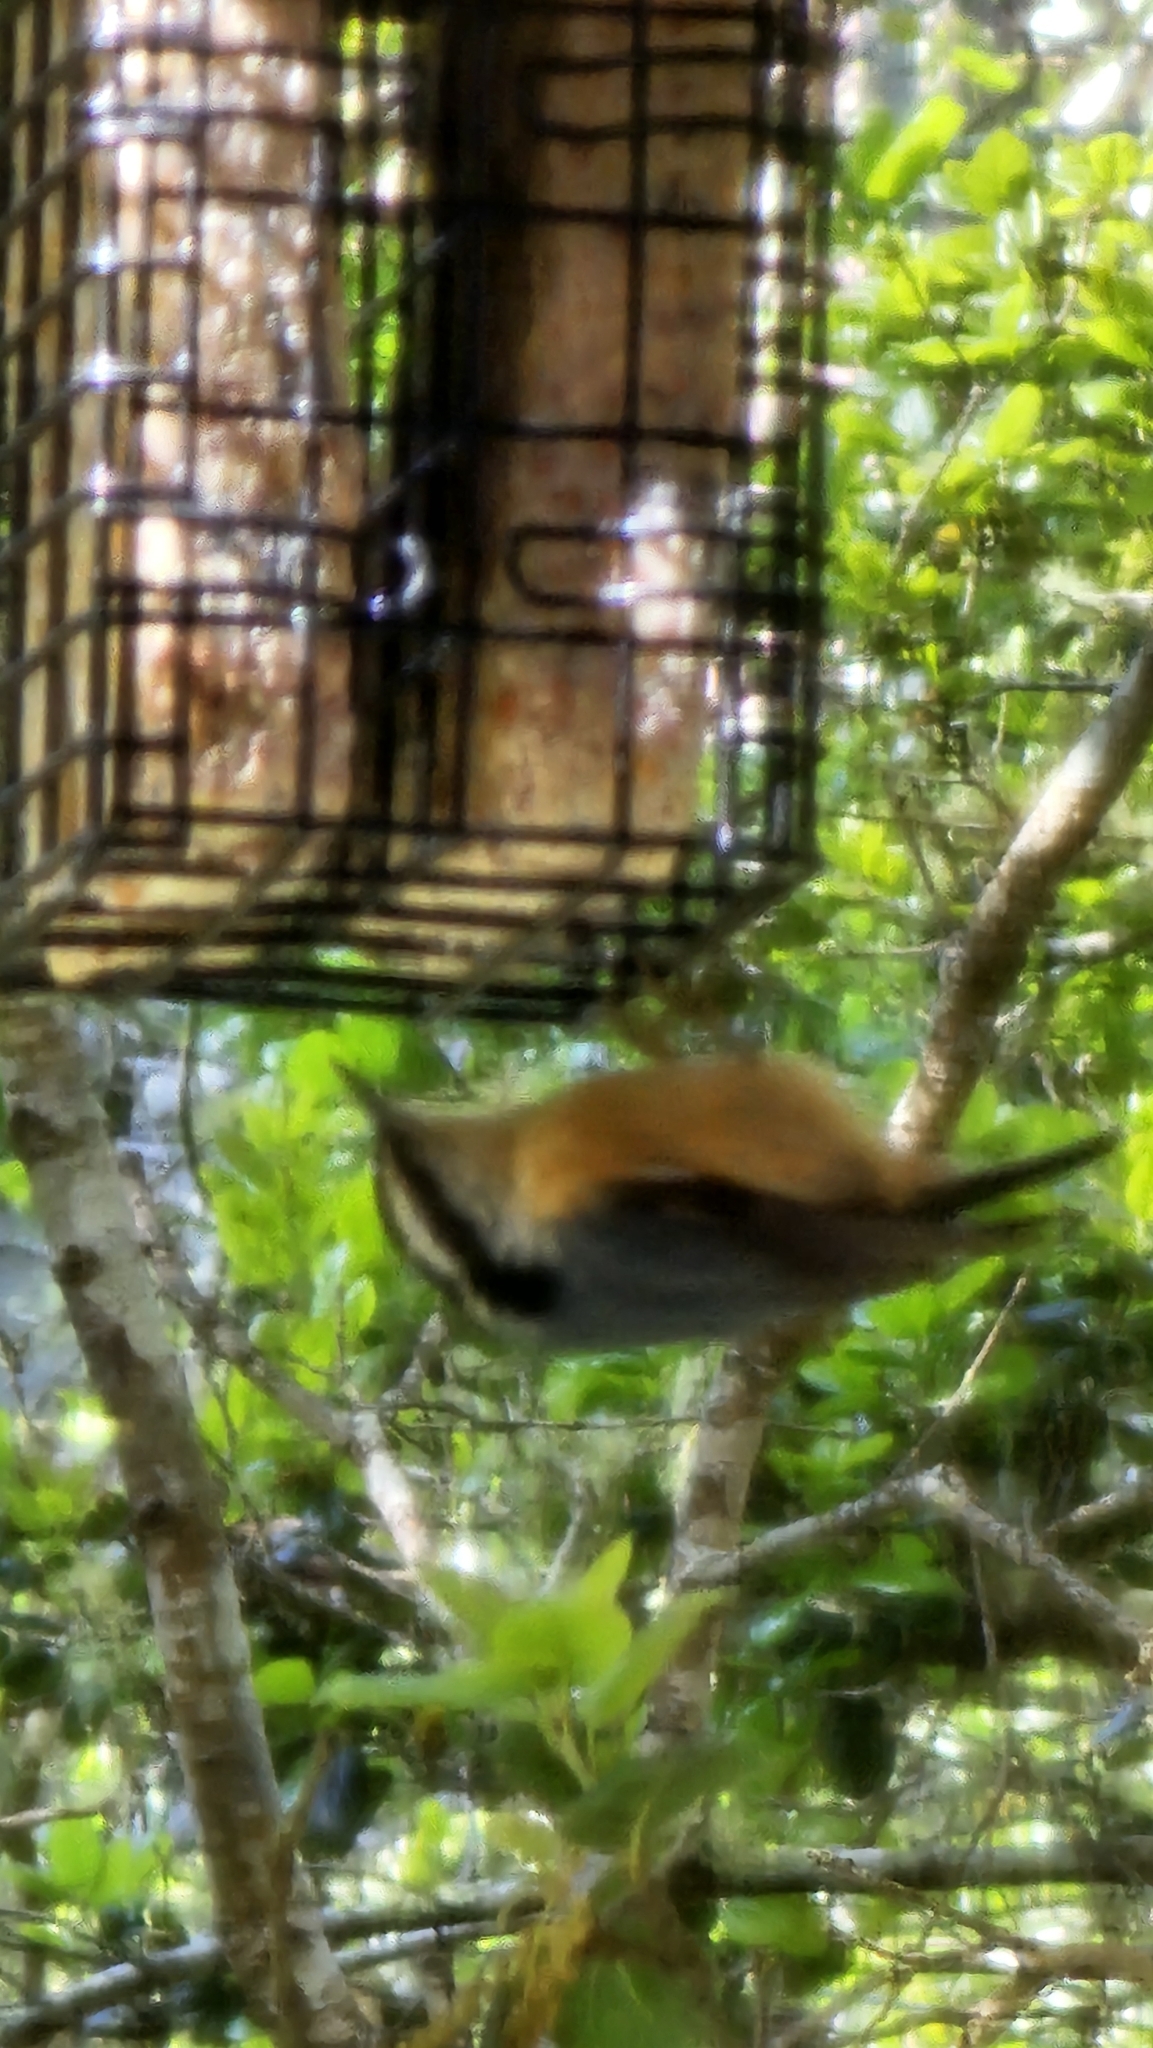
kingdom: Animalia
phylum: Chordata
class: Aves
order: Passeriformes
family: Sittidae
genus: Sitta
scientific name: Sitta canadensis
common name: Red-breasted nuthatch
